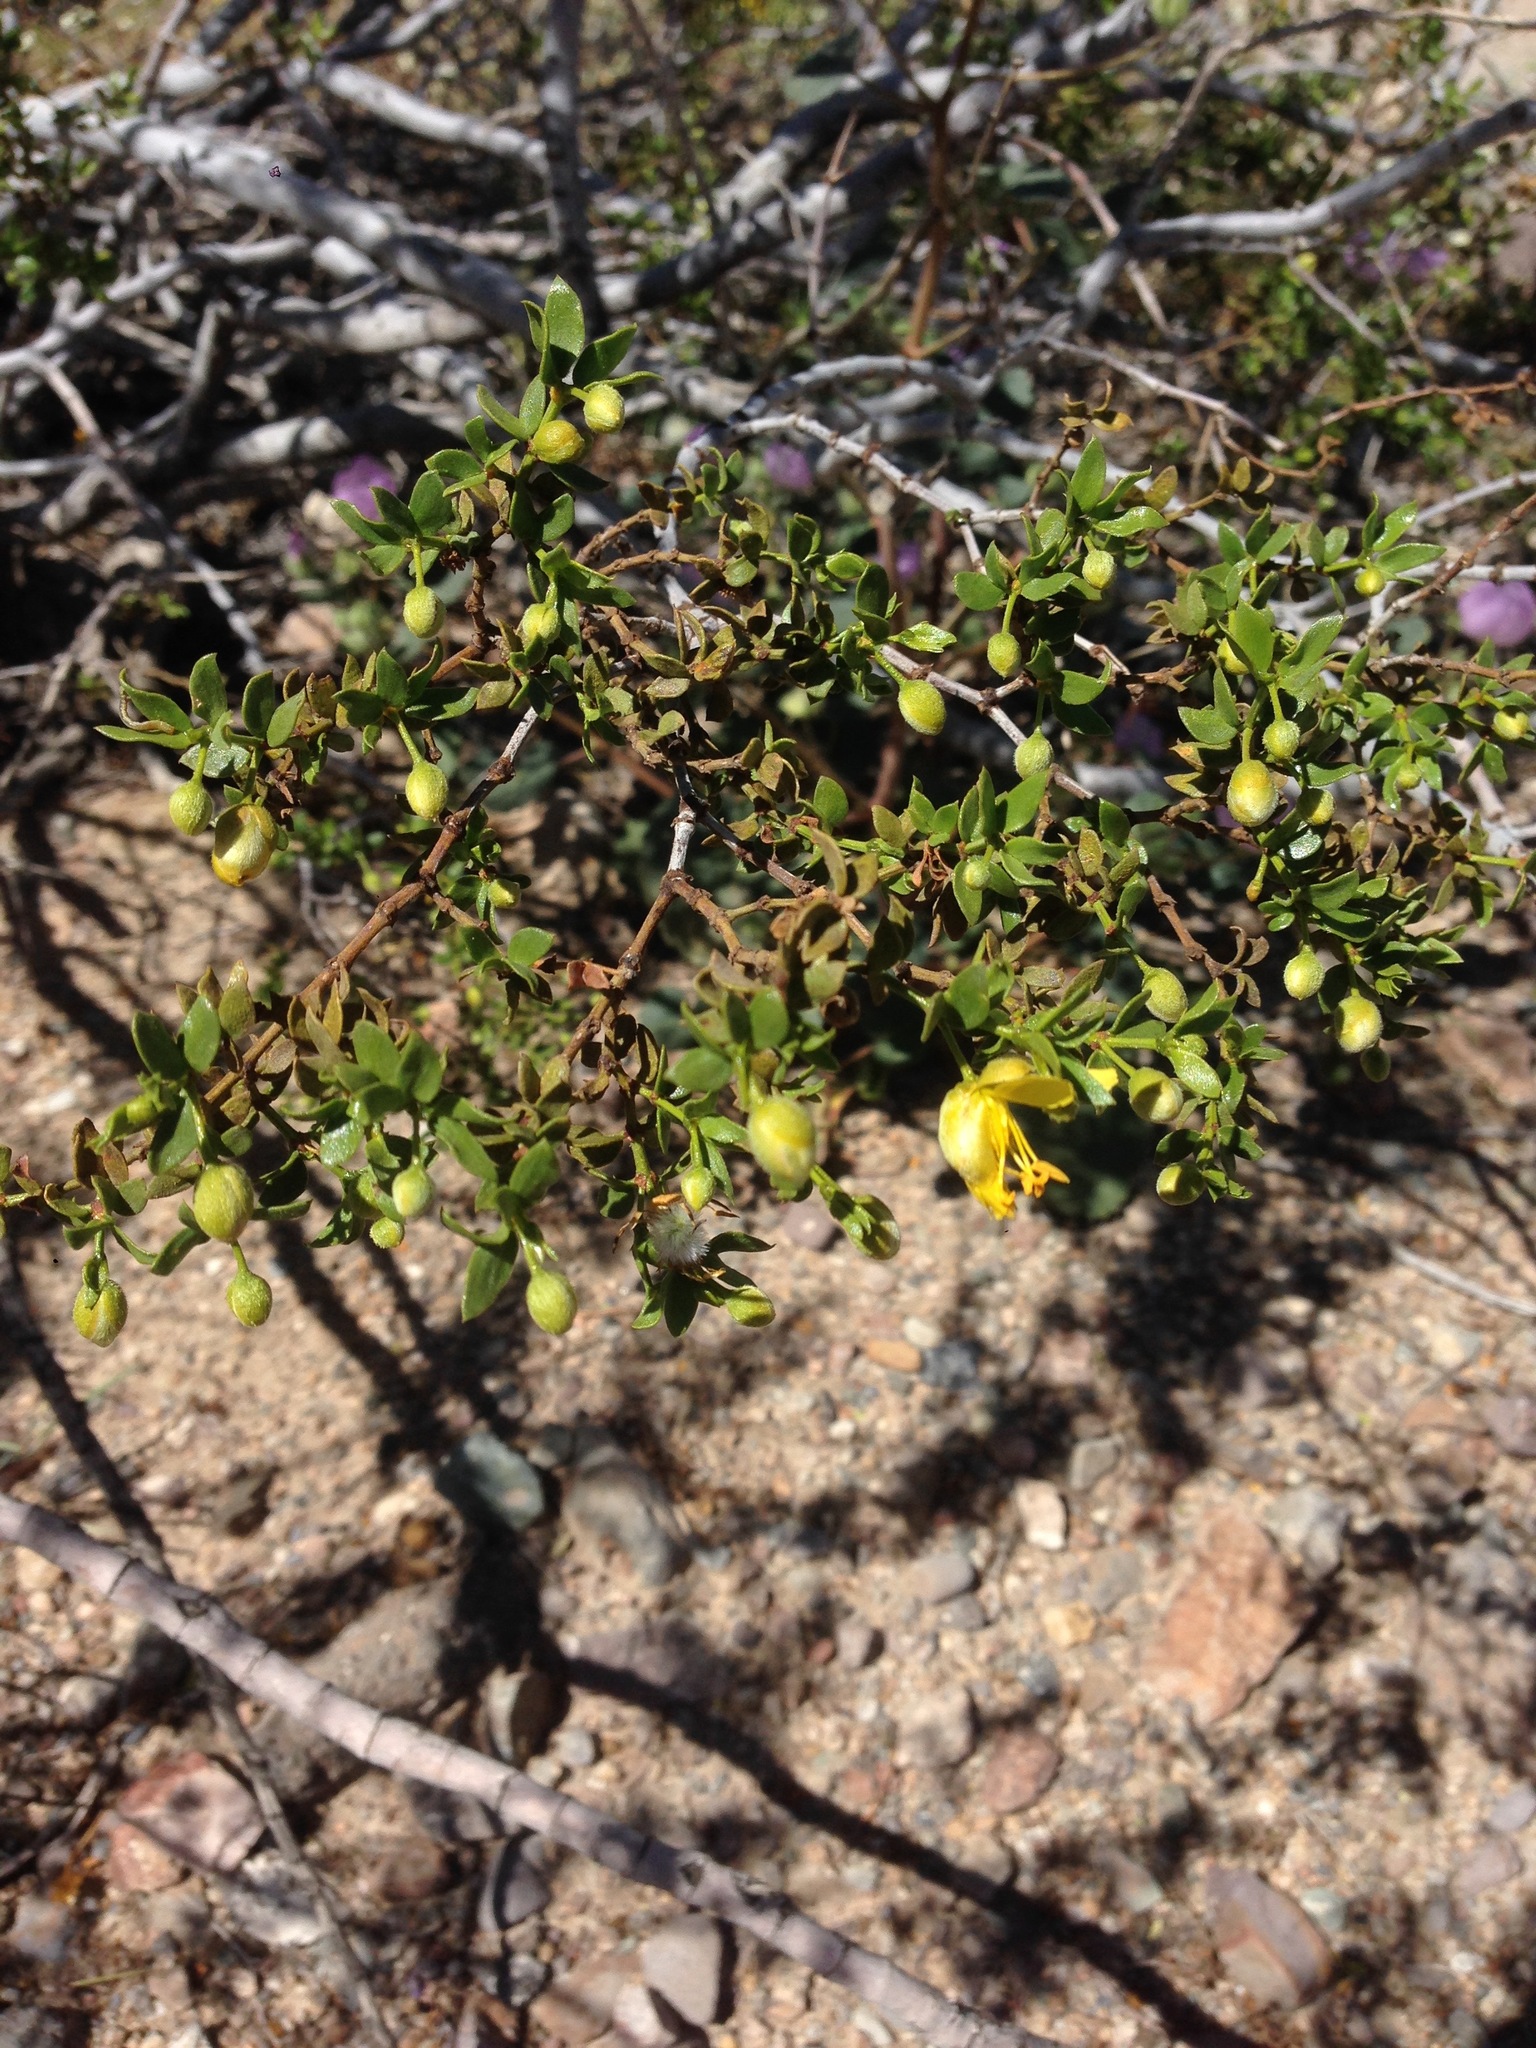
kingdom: Plantae
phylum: Tracheophyta
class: Magnoliopsida
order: Zygophyllales
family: Zygophyllaceae
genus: Larrea
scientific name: Larrea tridentata
